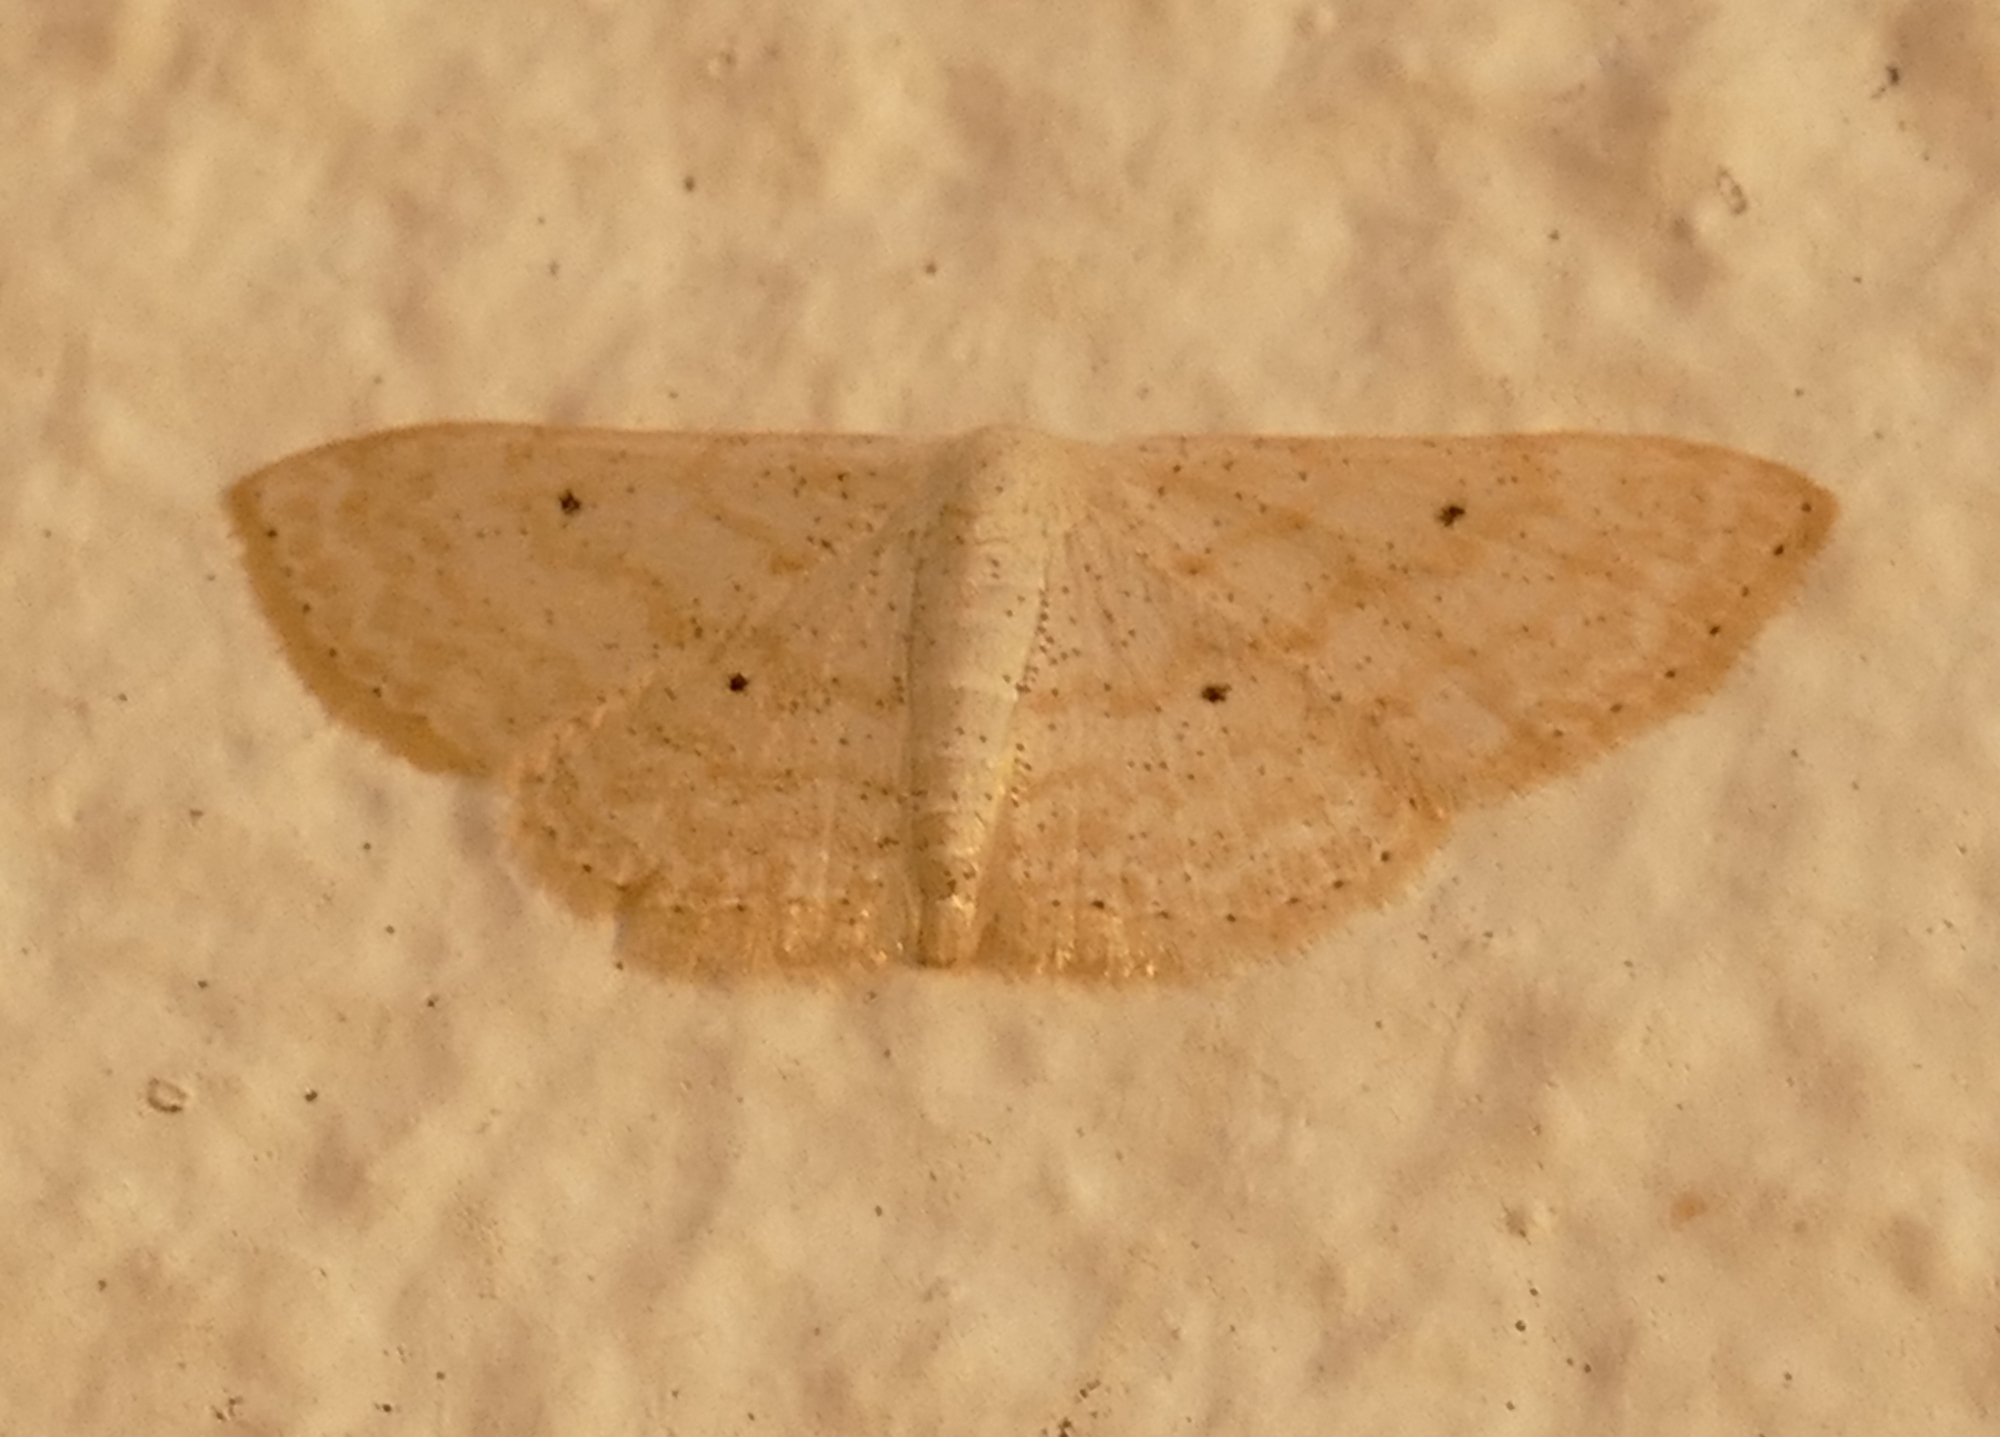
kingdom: Animalia
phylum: Arthropoda
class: Insecta
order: Lepidoptera
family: Geometridae
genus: Scopula
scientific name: Scopula benitaria
